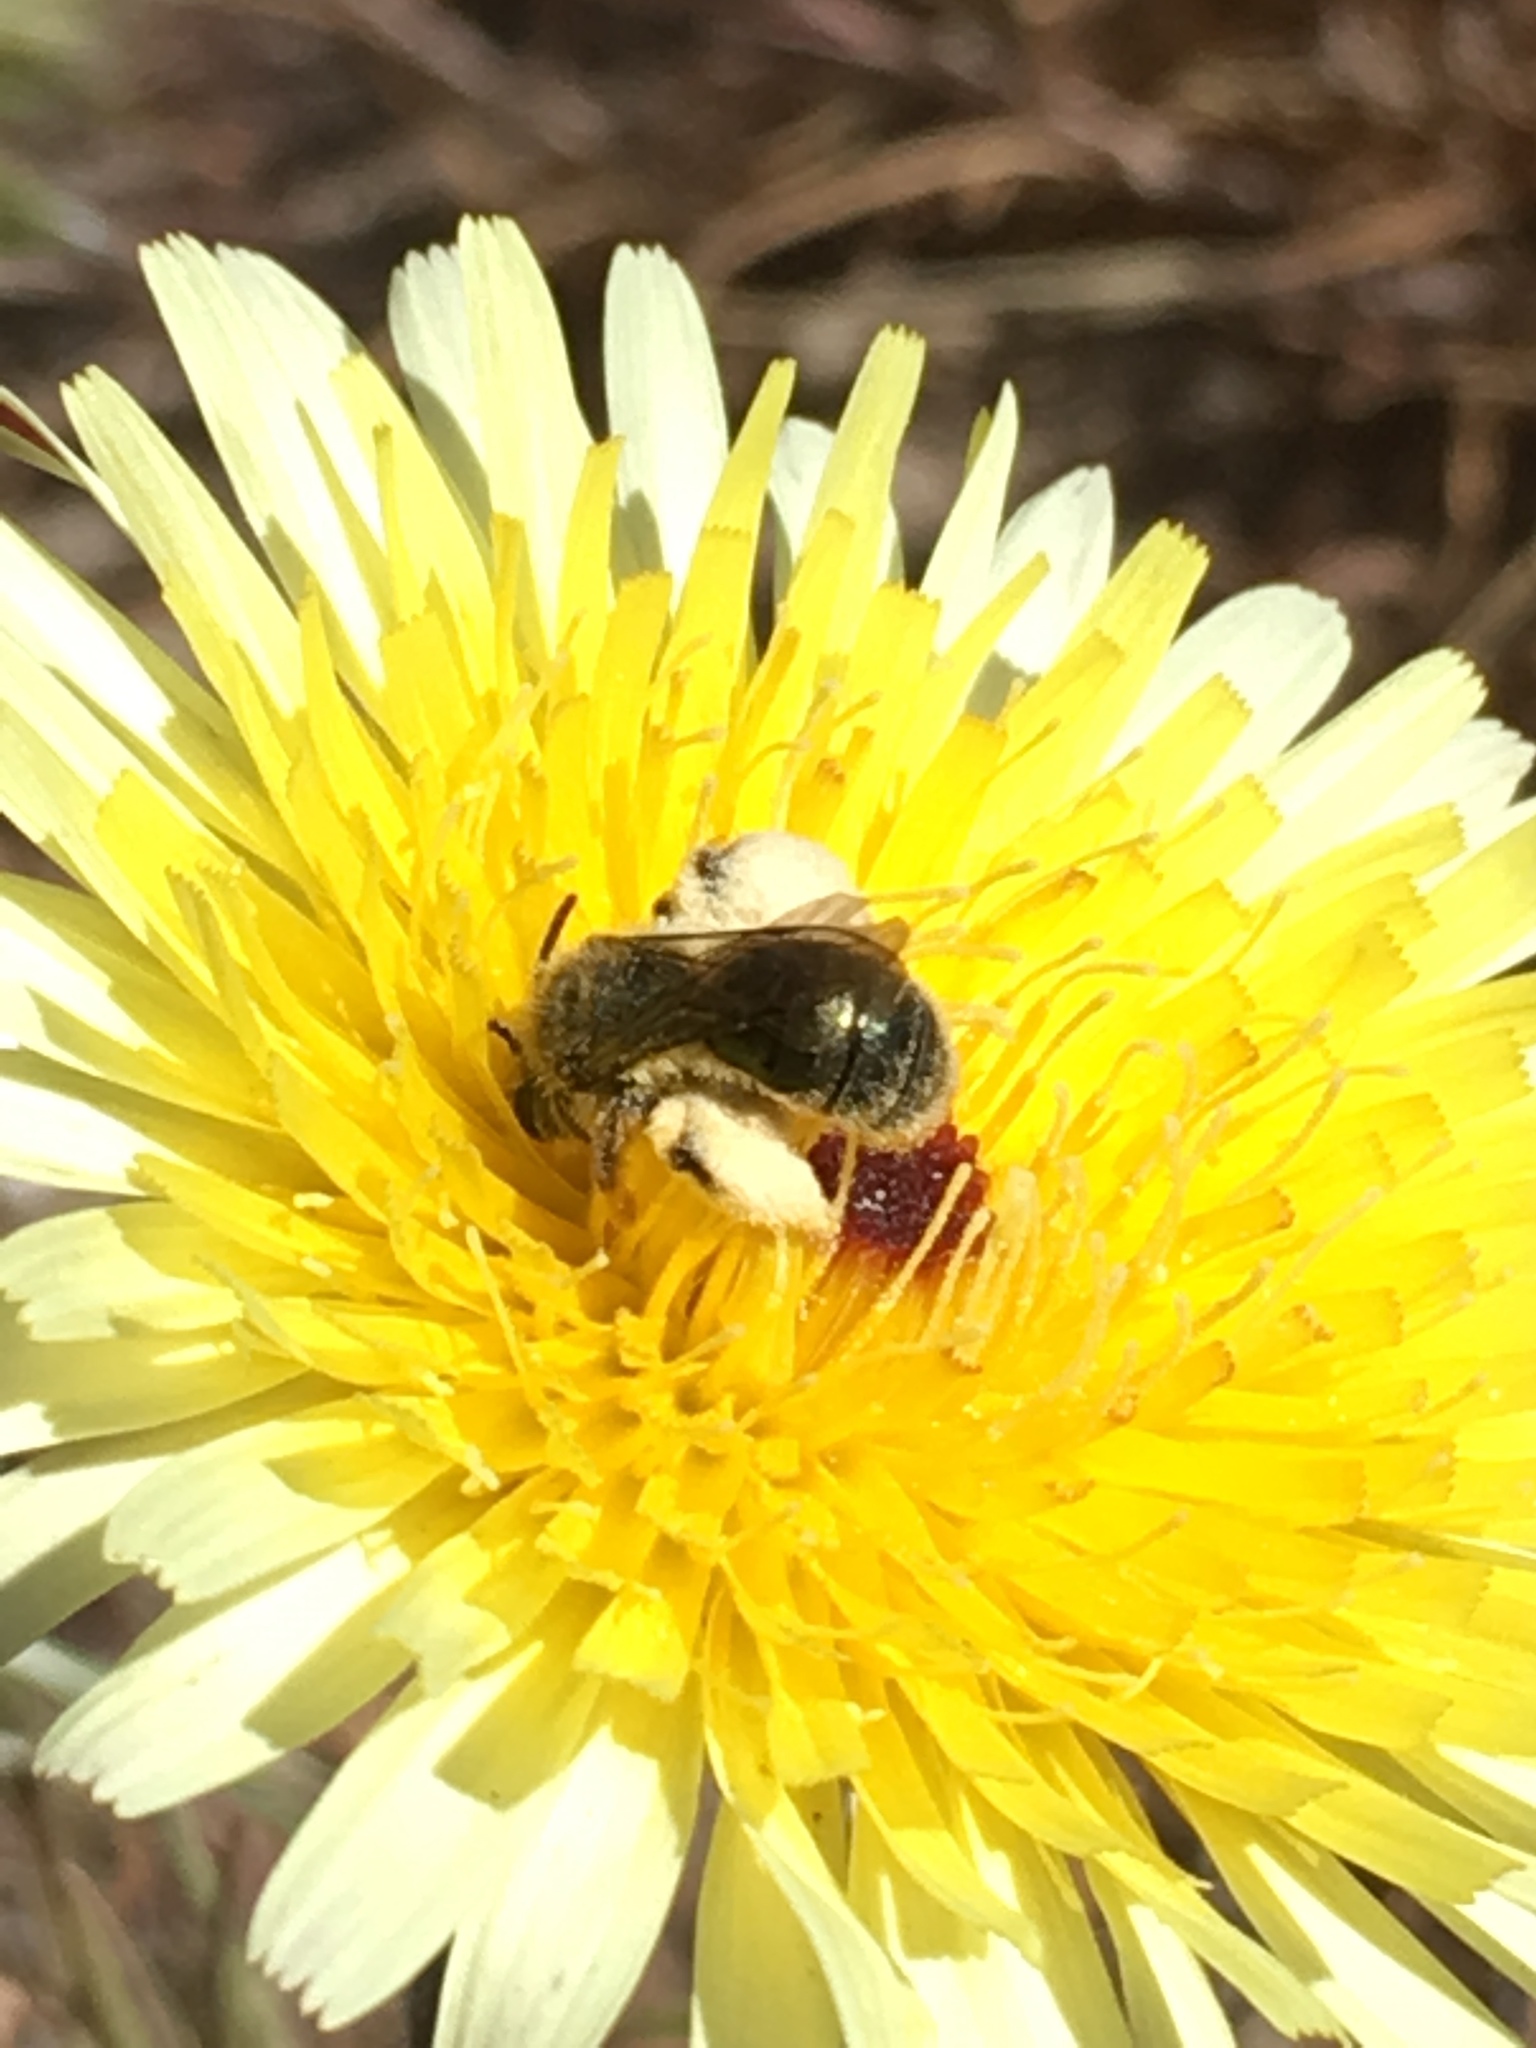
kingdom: Animalia
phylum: Arthropoda
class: Insecta
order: Hymenoptera
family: Andrenidae
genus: Andrena
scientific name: Andrena olivacea
